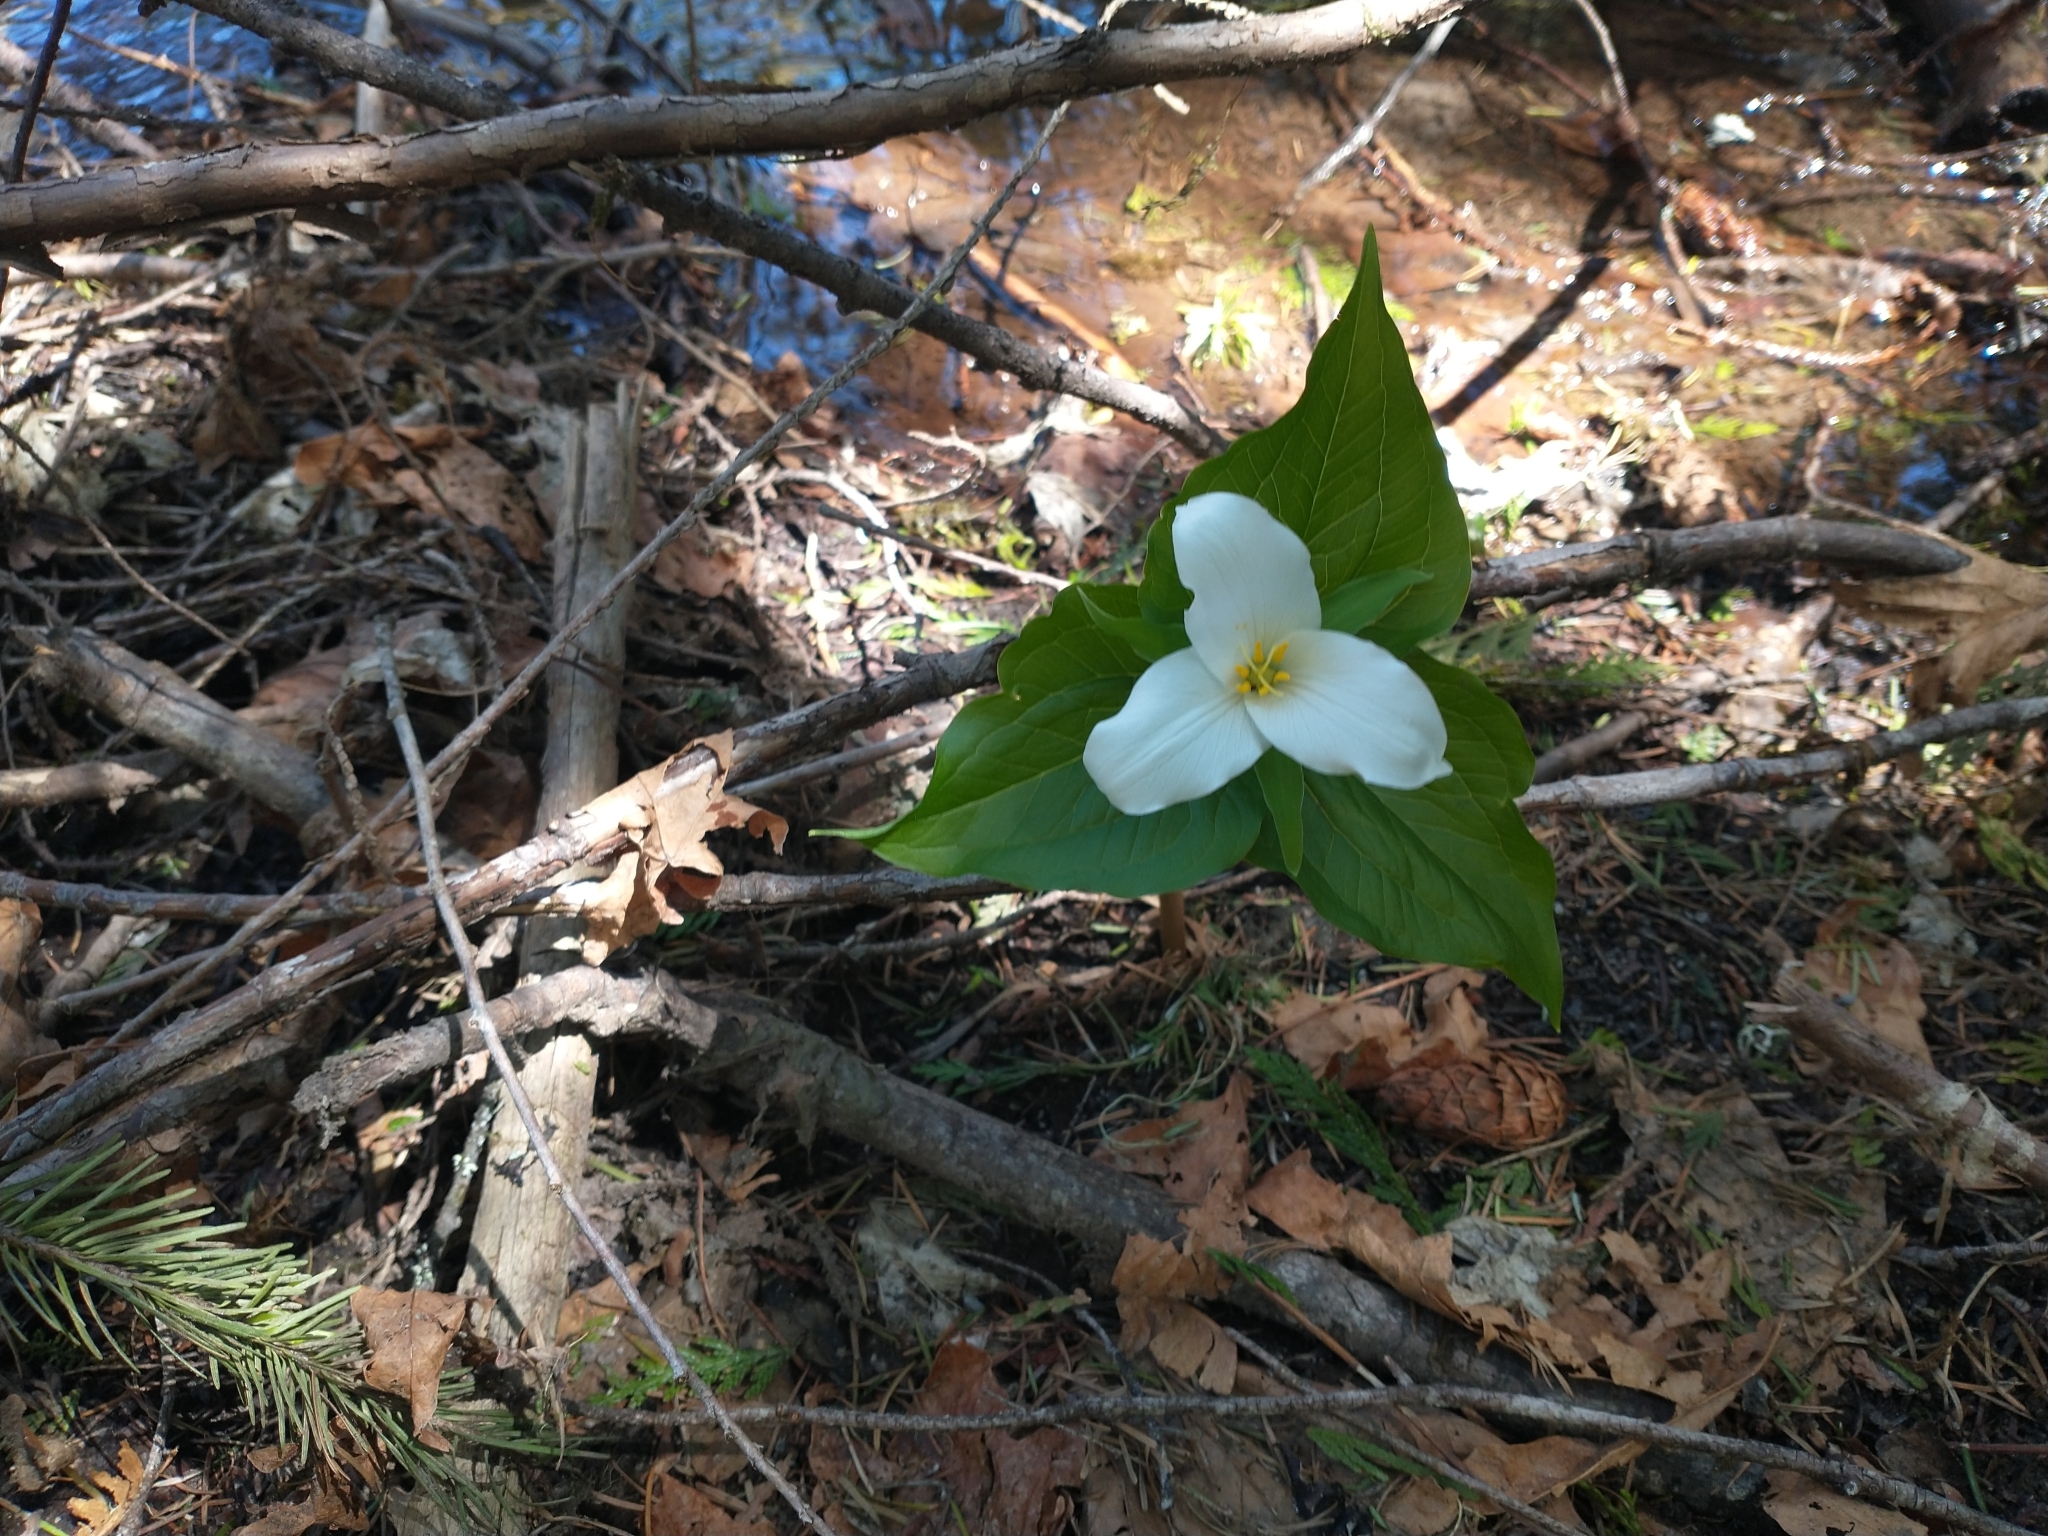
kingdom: Plantae
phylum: Tracheophyta
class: Liliopsida
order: Liliales
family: Melanthiaceae
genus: Trillium
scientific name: Trillium ovatum
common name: Pacific trillium
